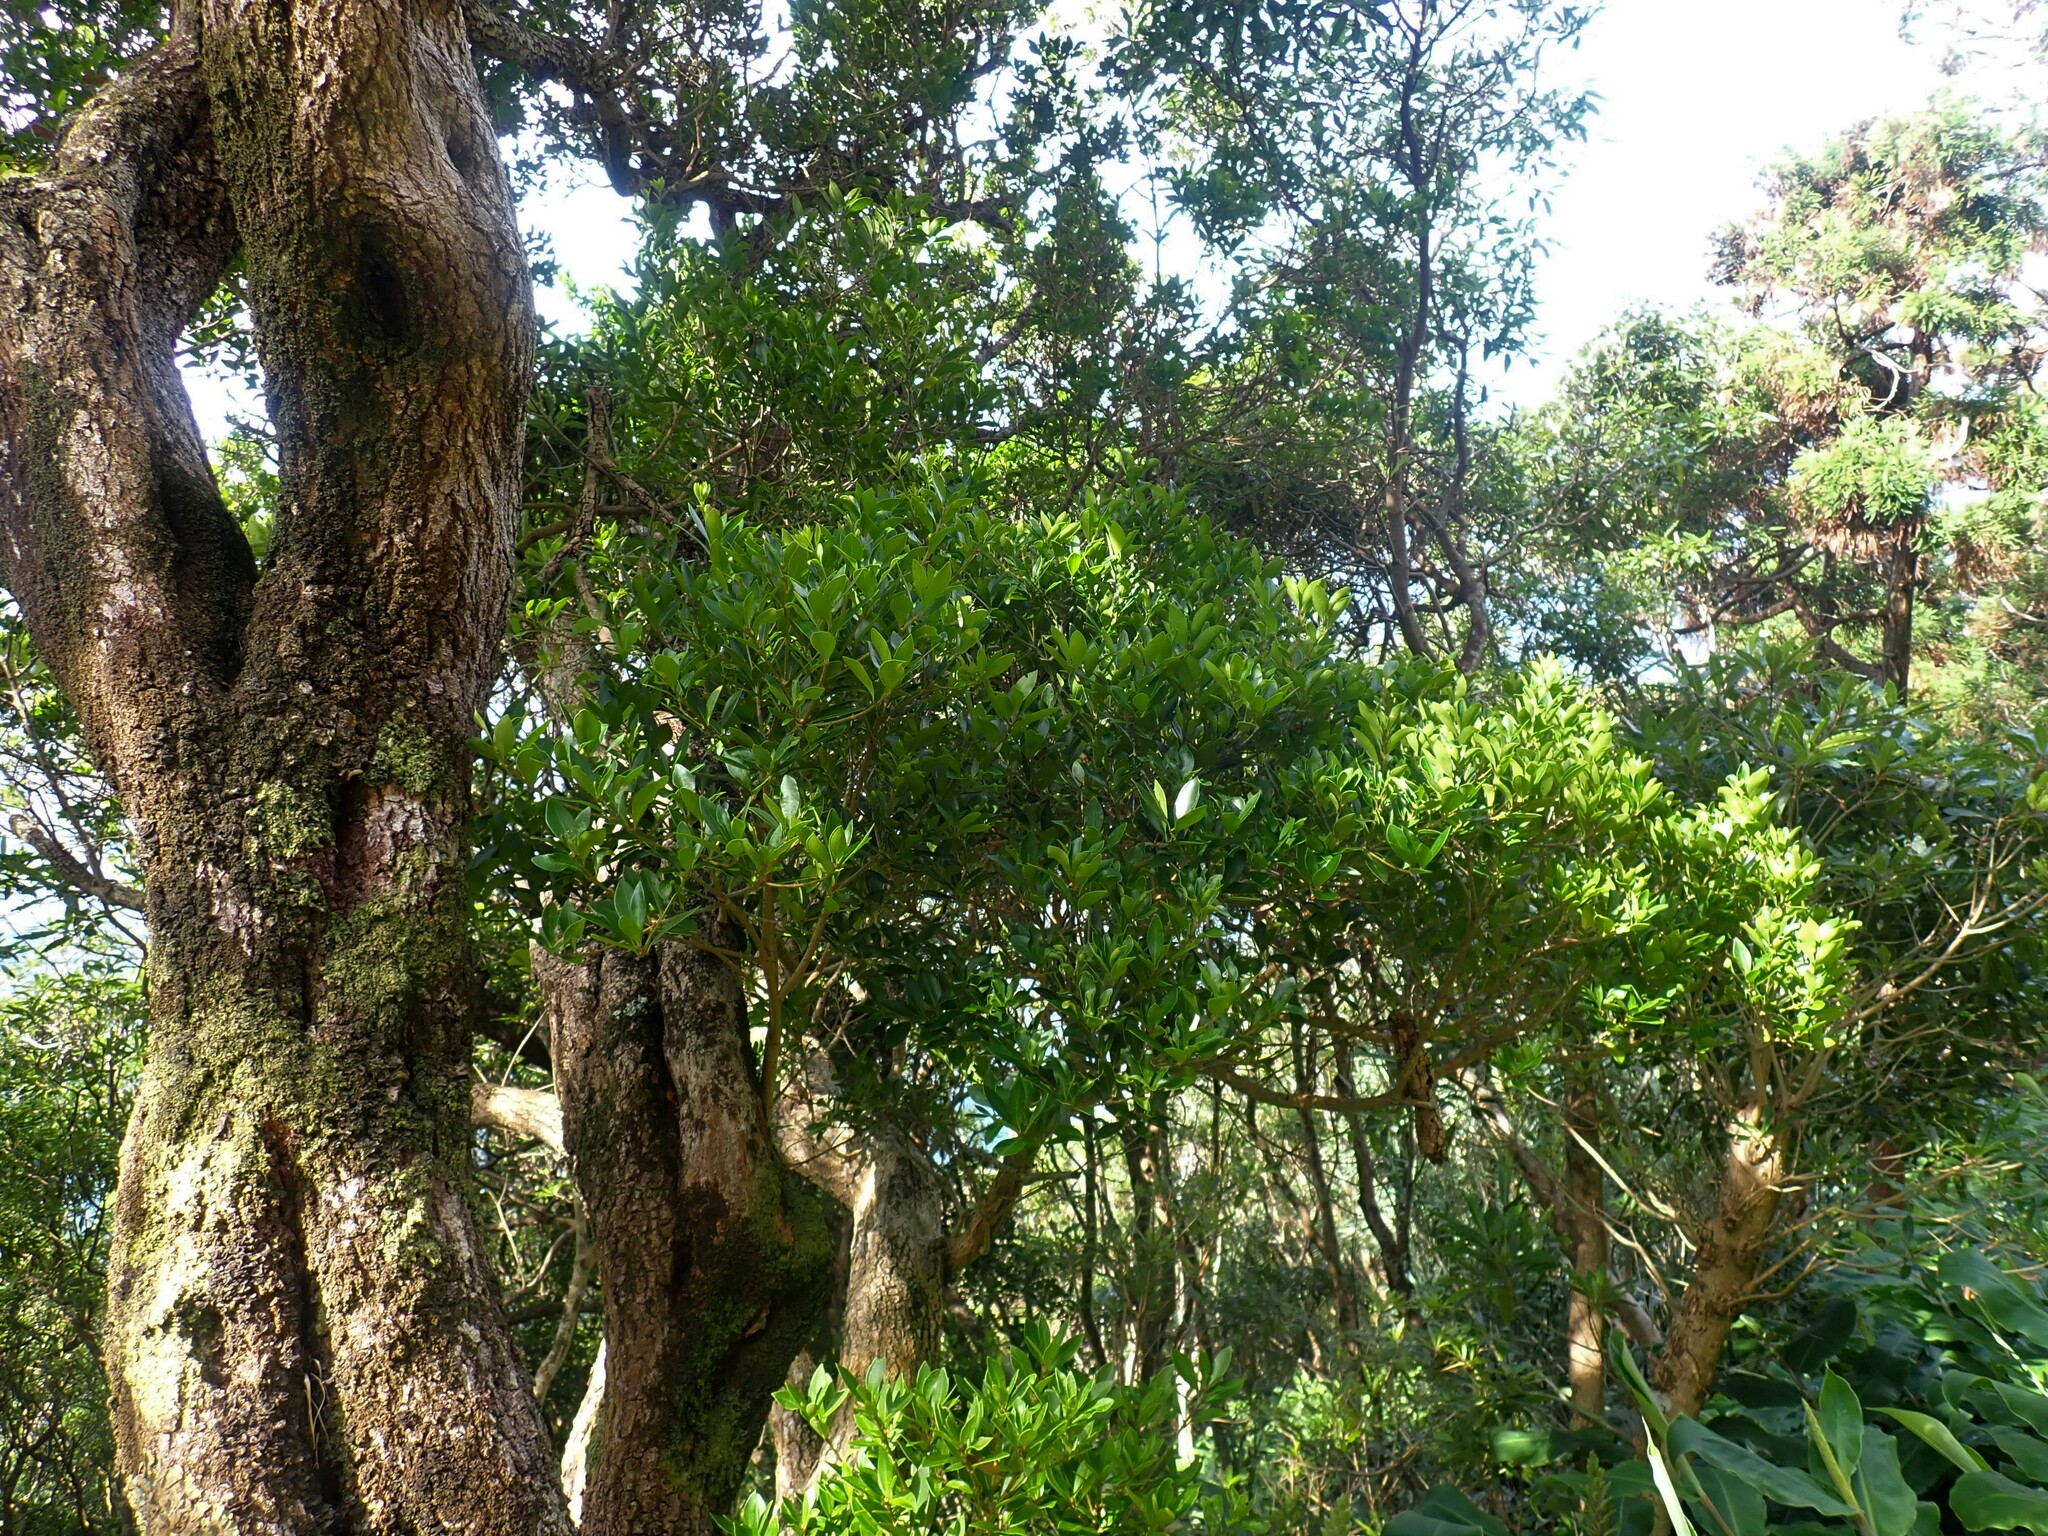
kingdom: Plantae
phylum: Tracheophyta
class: Magnoliopsida
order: Lamiales
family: Oleaceae
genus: Picconia
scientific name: Picconia azorica
